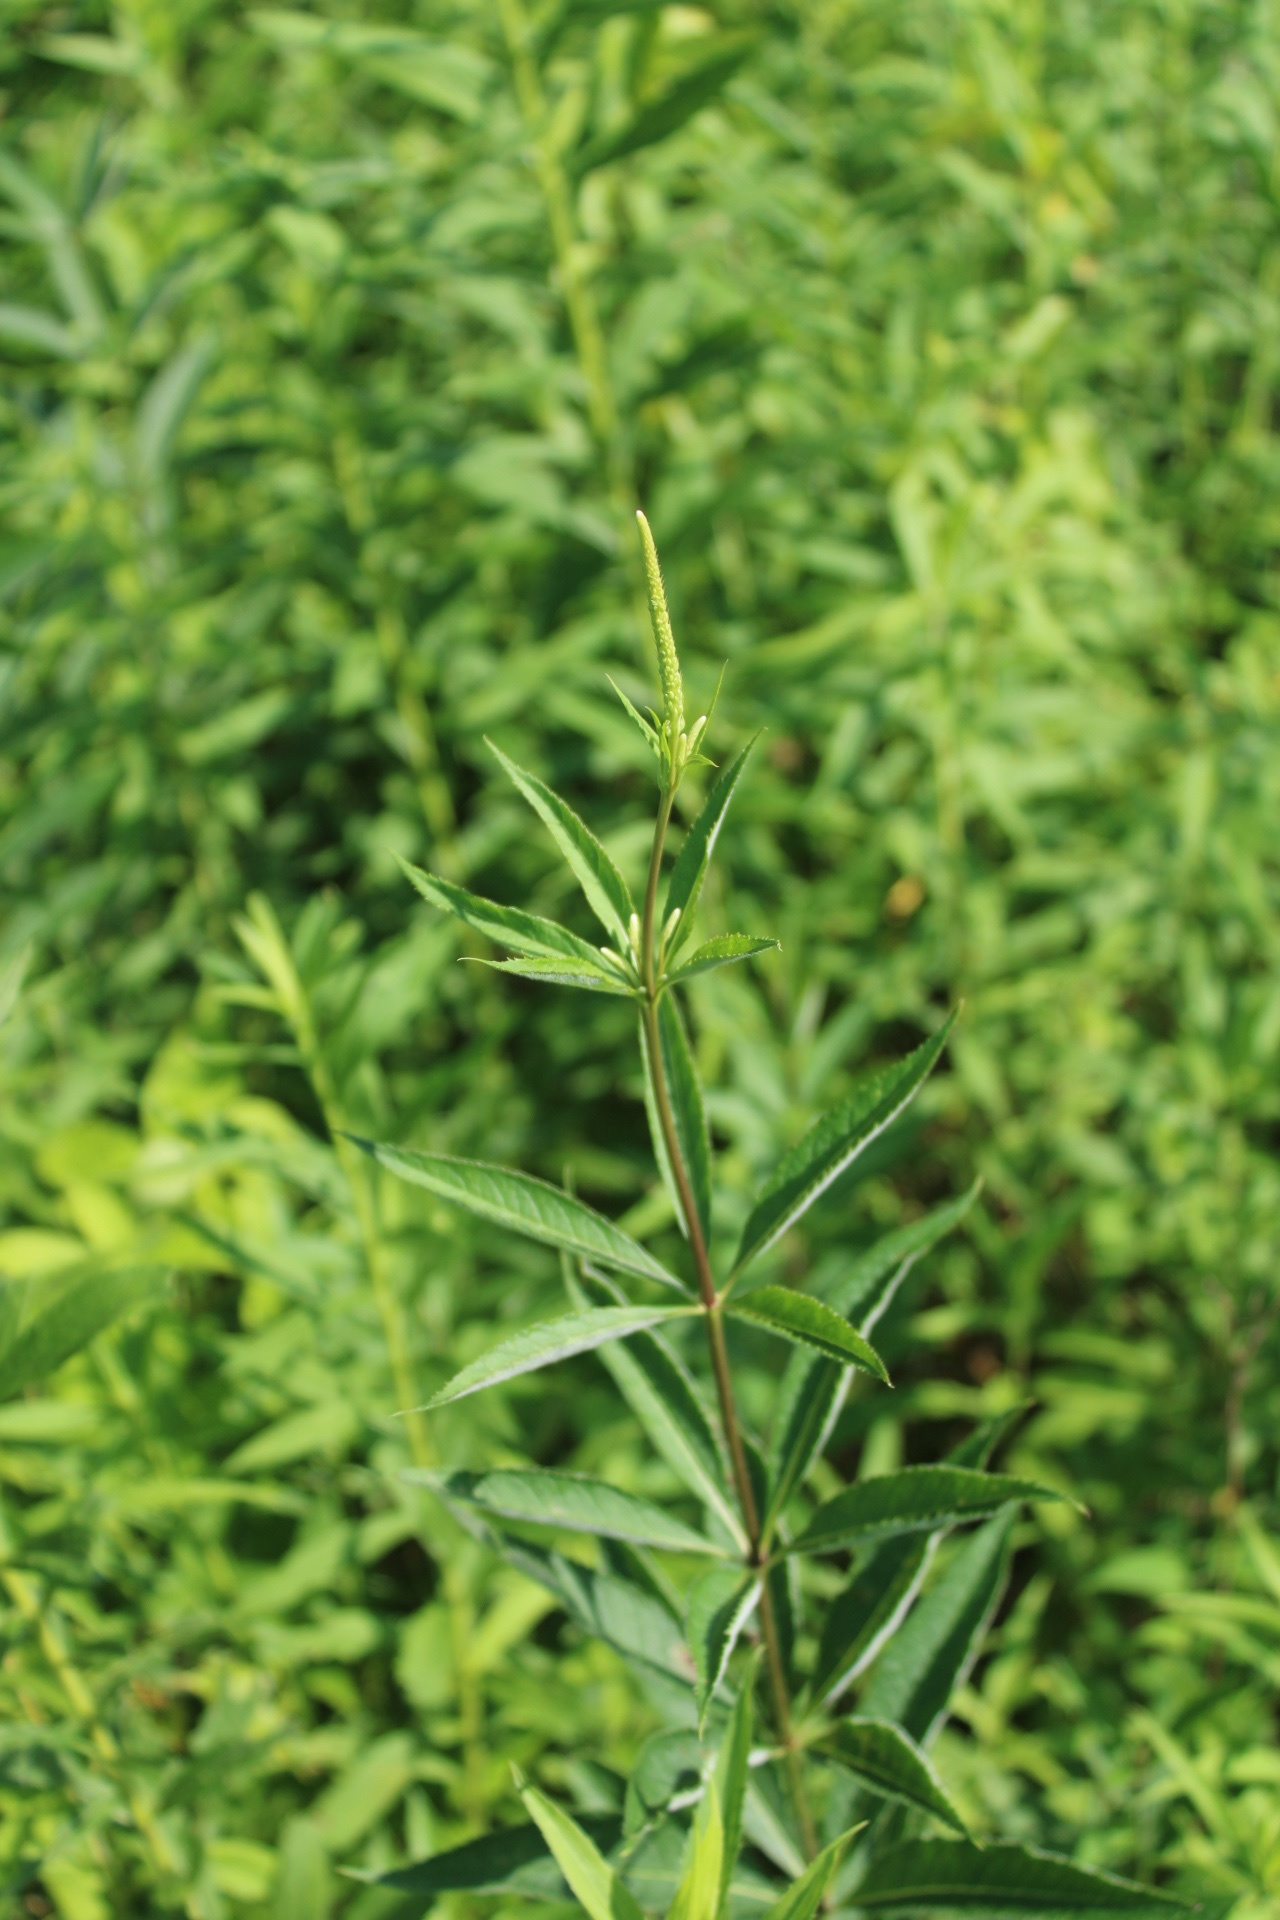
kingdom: Plantae
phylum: Tracheophyta
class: Magnoliopsida
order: Lamiales
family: Plantaginaceae
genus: Veronicastrum
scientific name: Veronicastrum virginicum
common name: Blackroot
